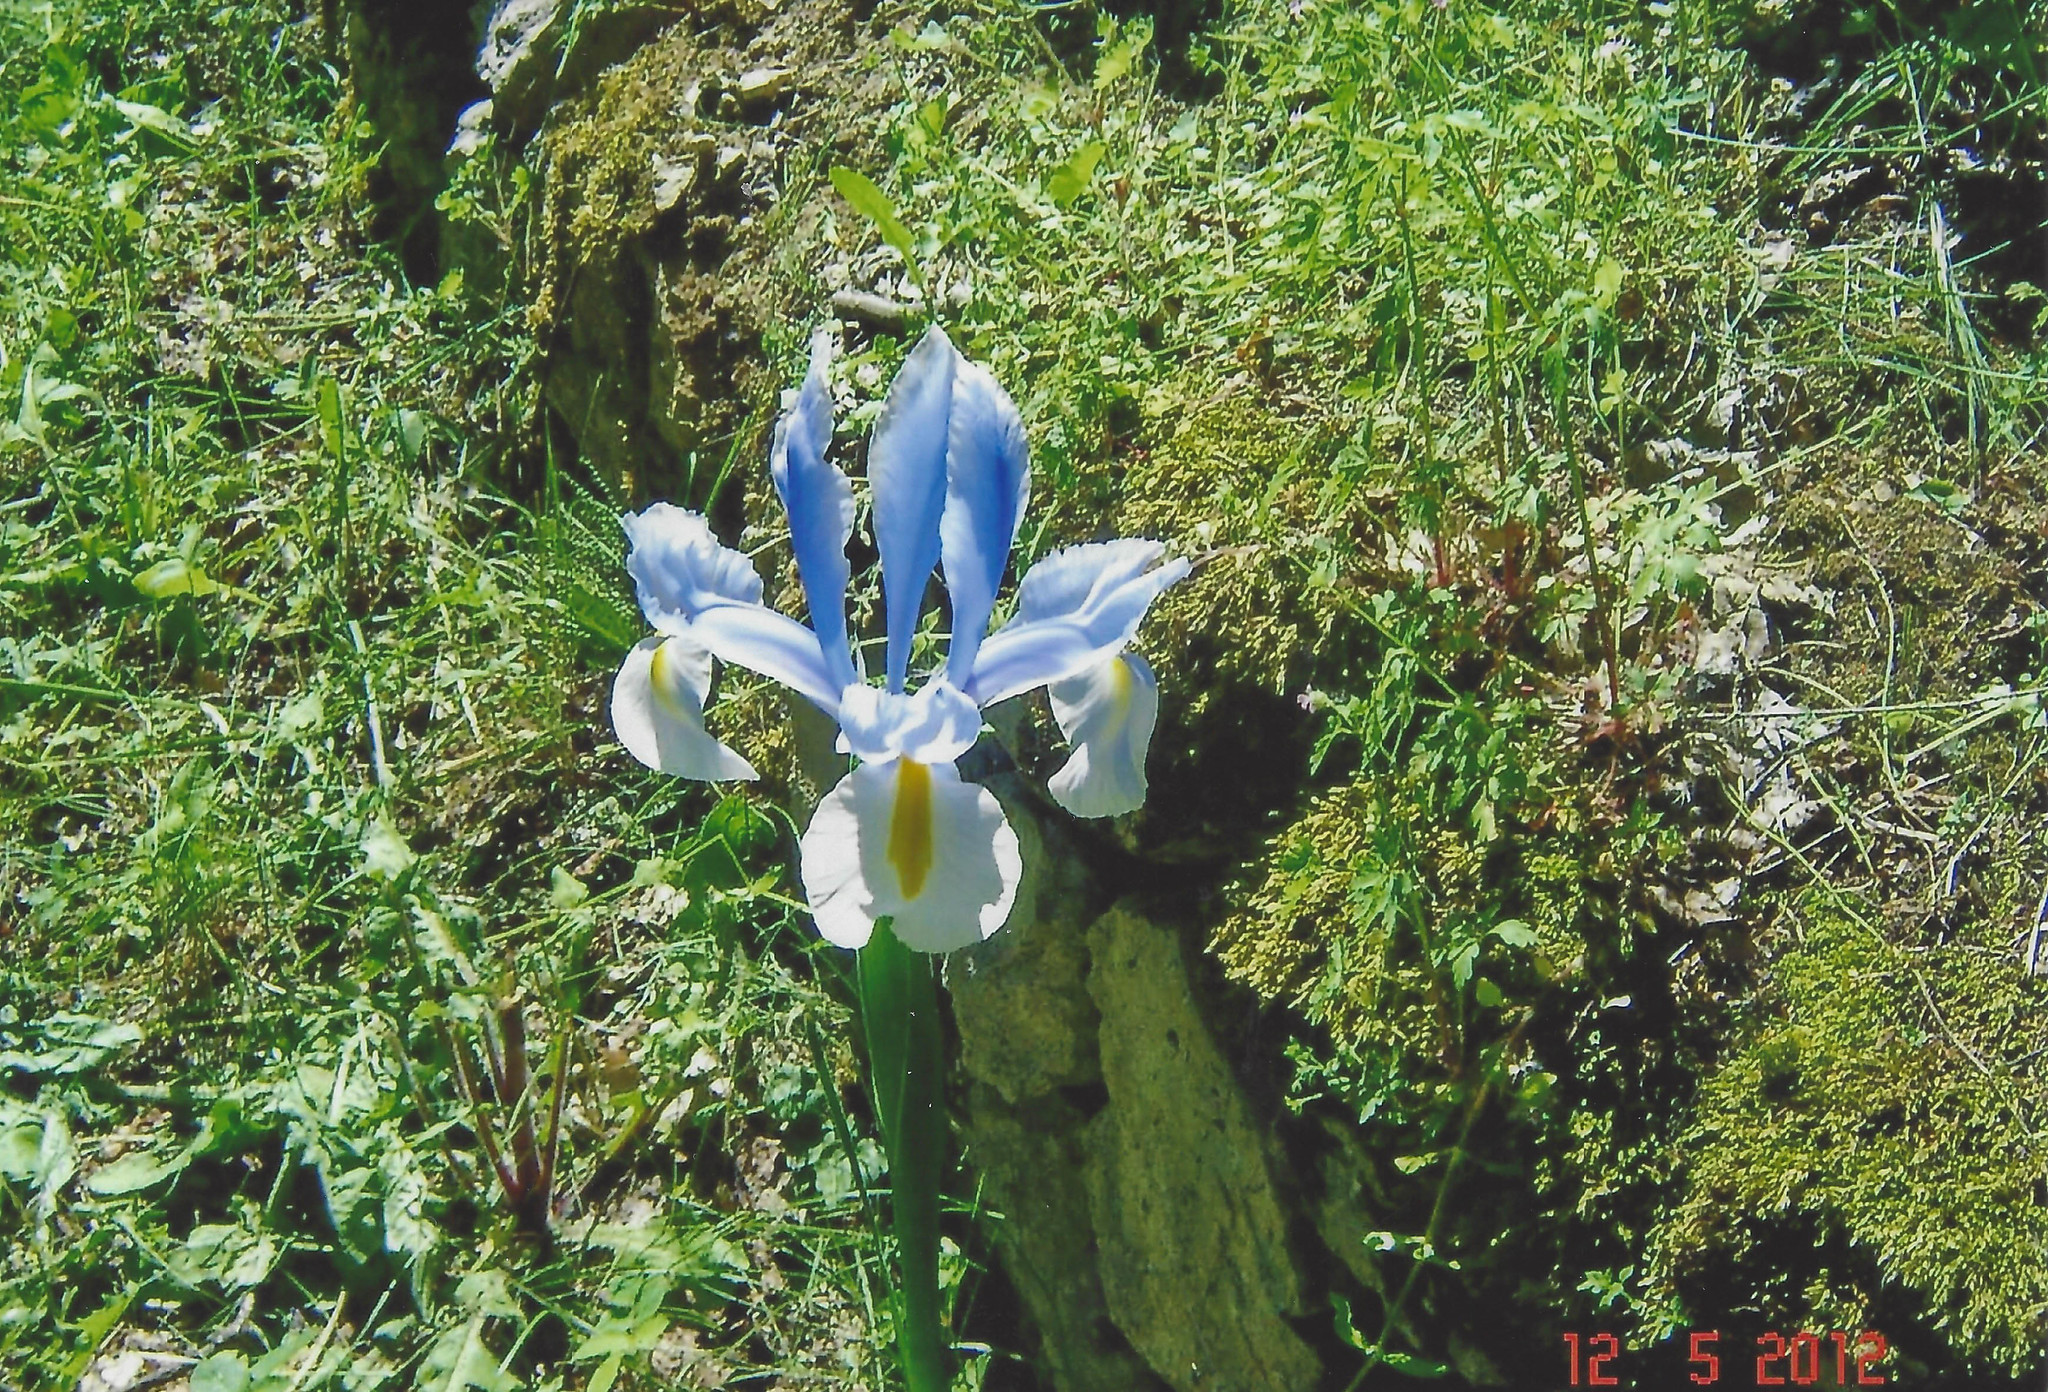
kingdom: Plantae
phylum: Tracheophyta
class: Liliopsida
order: Asparagales
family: Iridaceae
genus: Iris
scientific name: Iris hollandica
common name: Dutch iris
